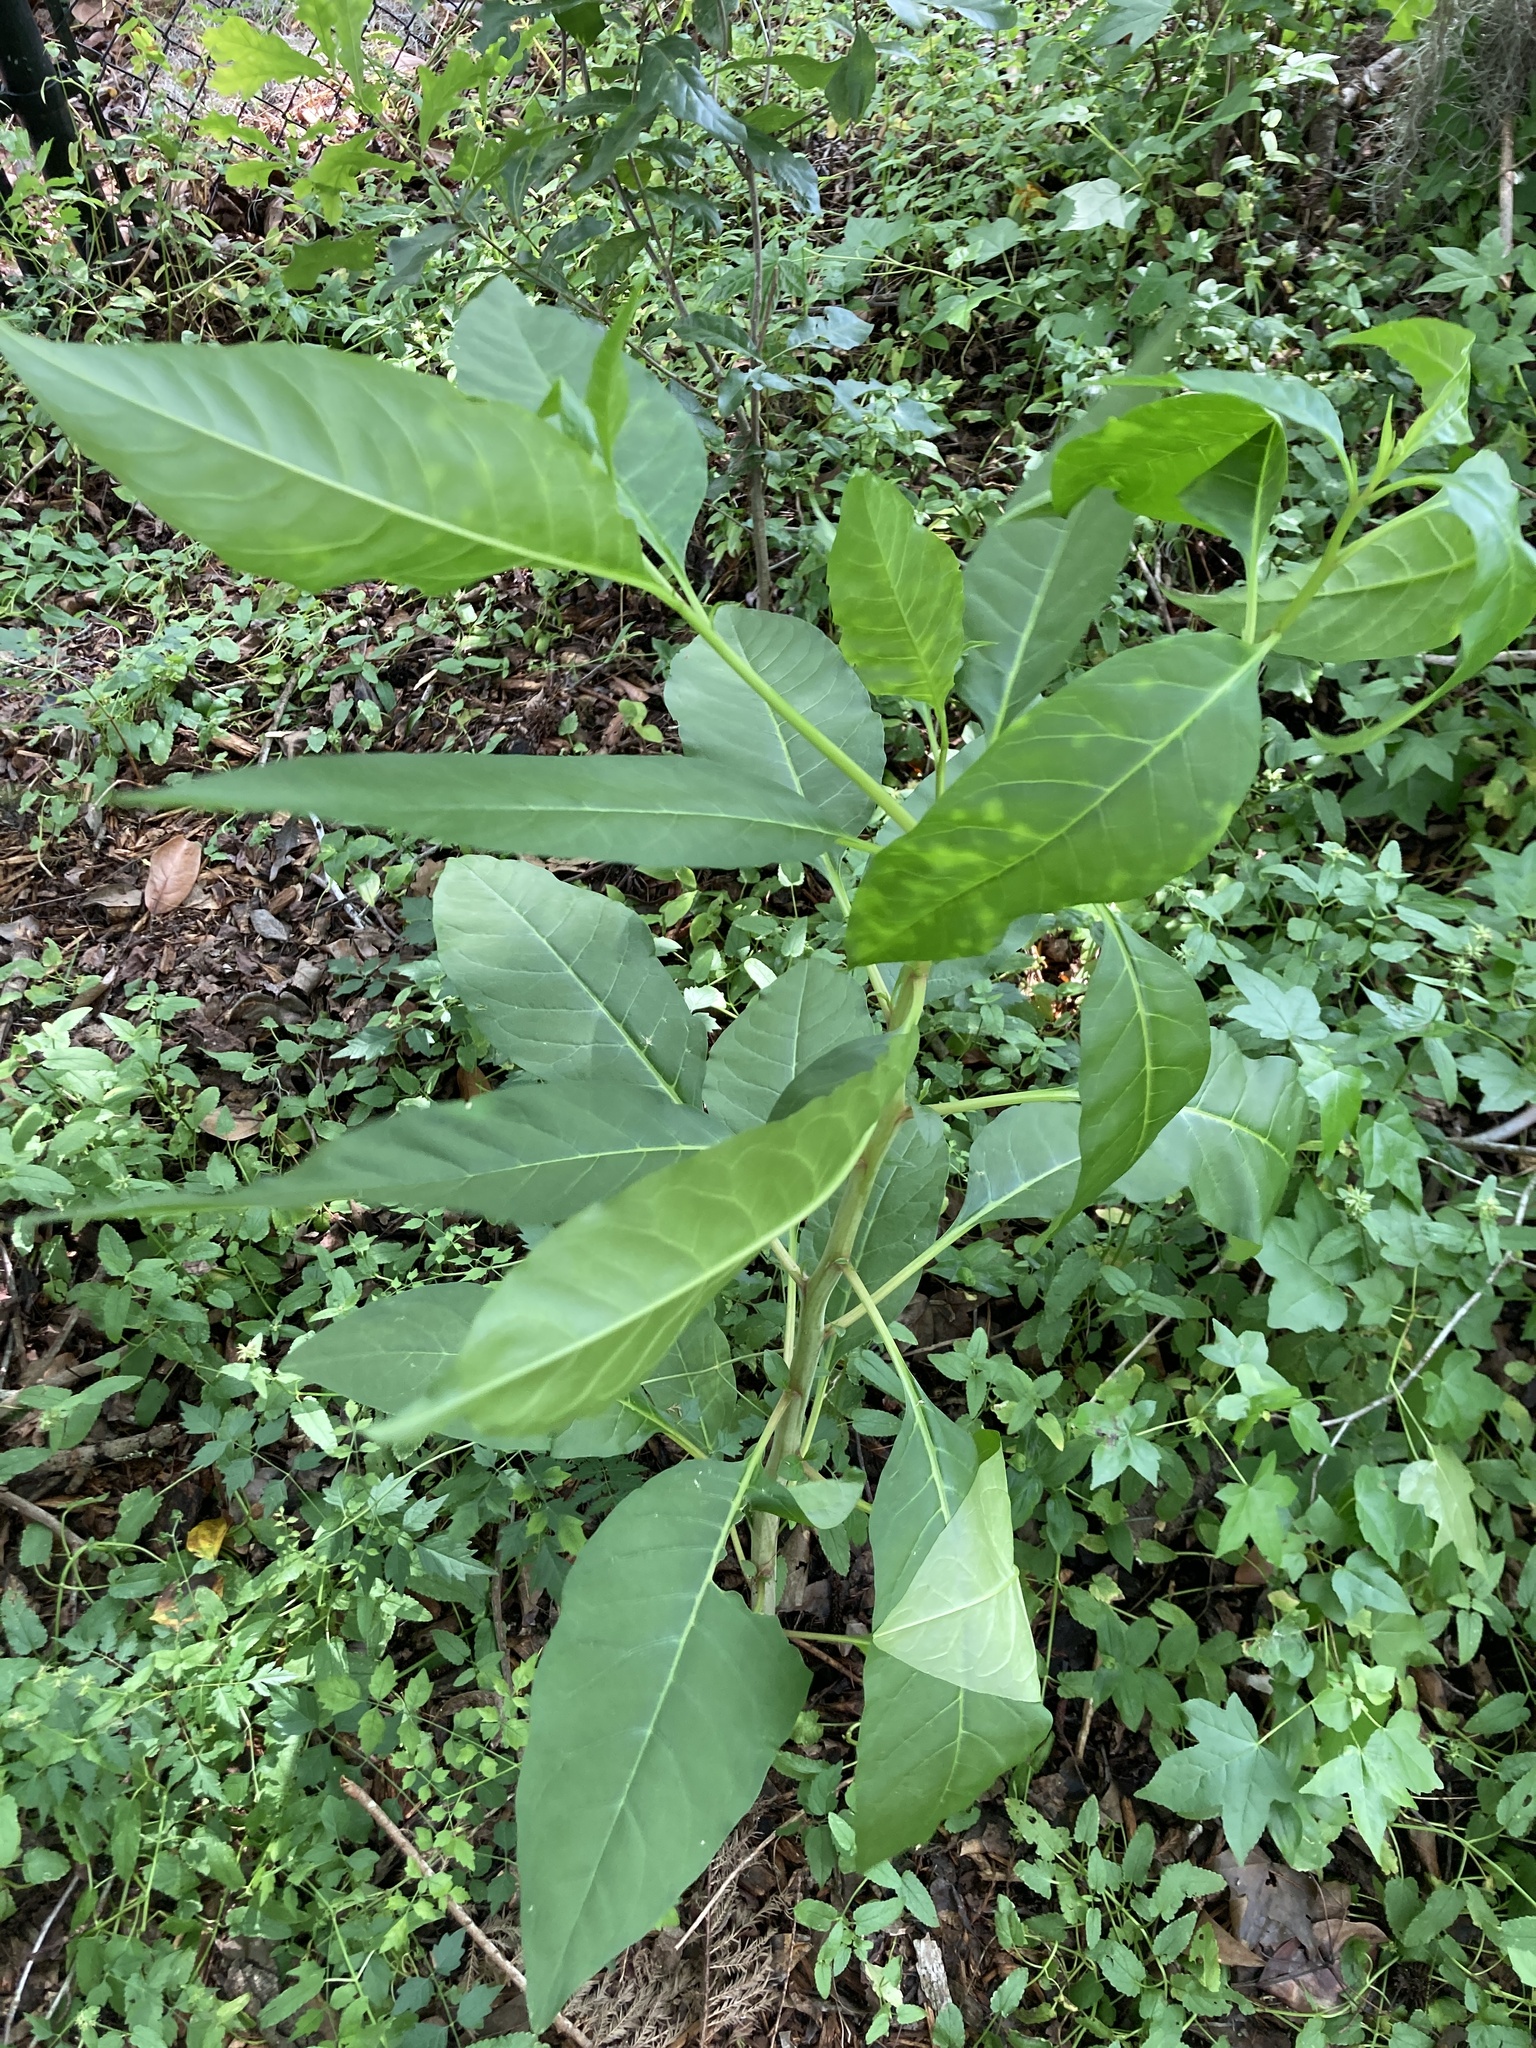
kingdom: Plantae
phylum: Tracheophyta
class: Magnoliopsida
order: Caryophyllales
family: Phytolaccaceae
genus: Phytolacca
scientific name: Phytolacca americana
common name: American pokeweed
